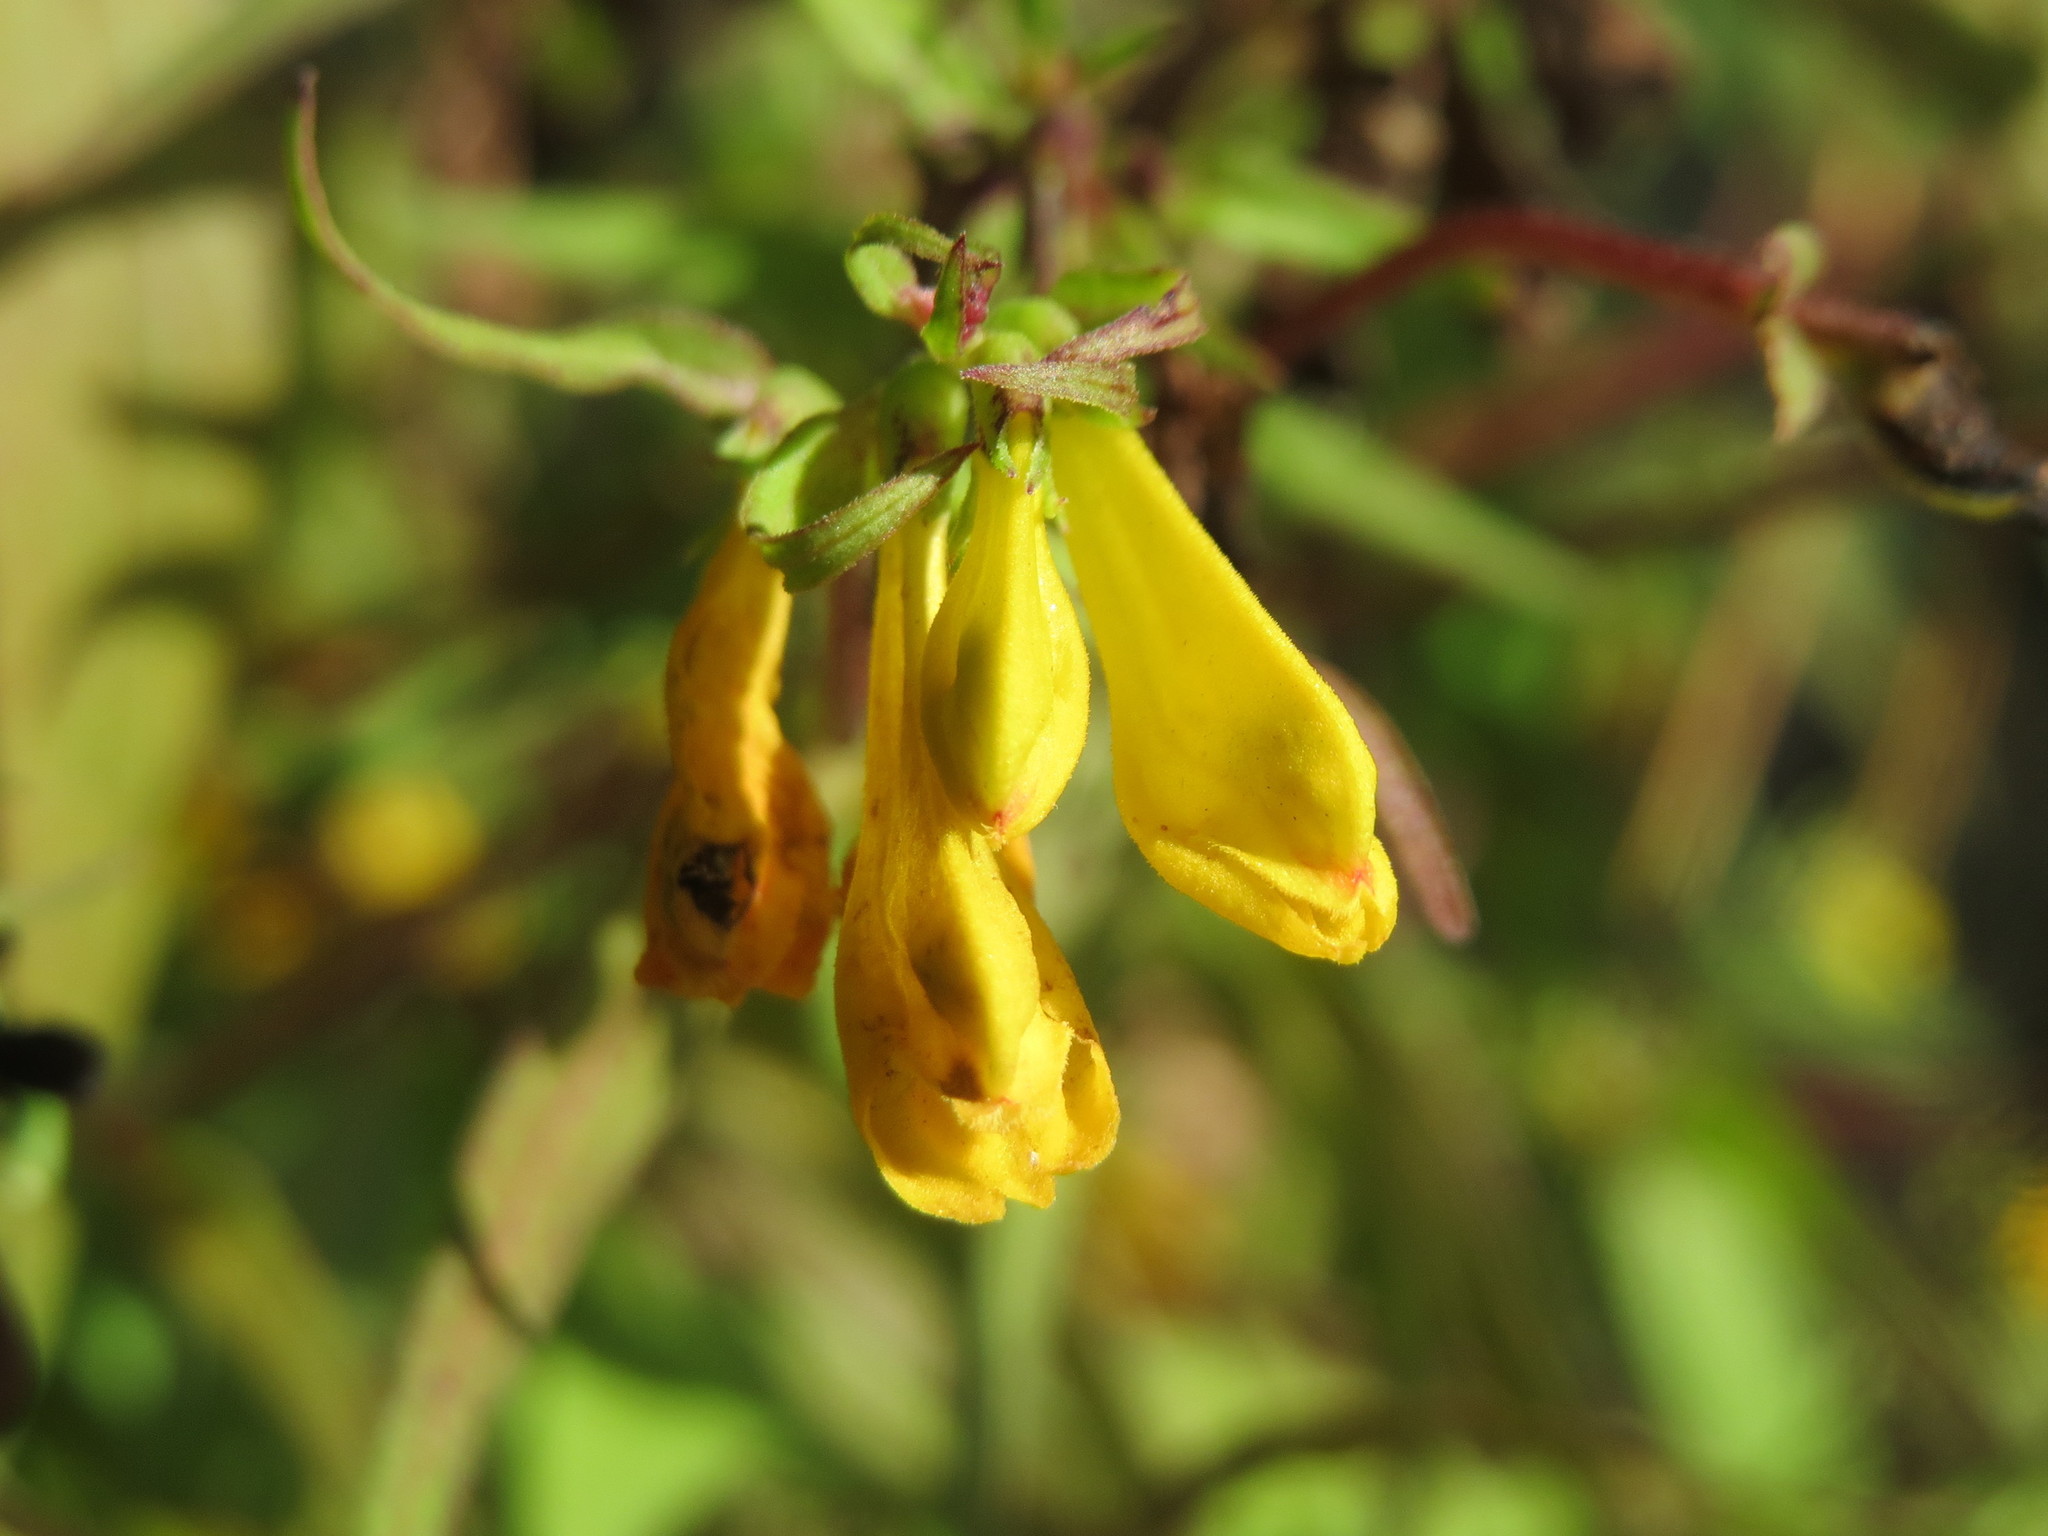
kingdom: Plantae
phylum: Tracheophyta
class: Magnoliopsida
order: Lamiales
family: Orobanchaceae
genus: Melampyrum
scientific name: Melampyrum pratense
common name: Common cow-wheat
